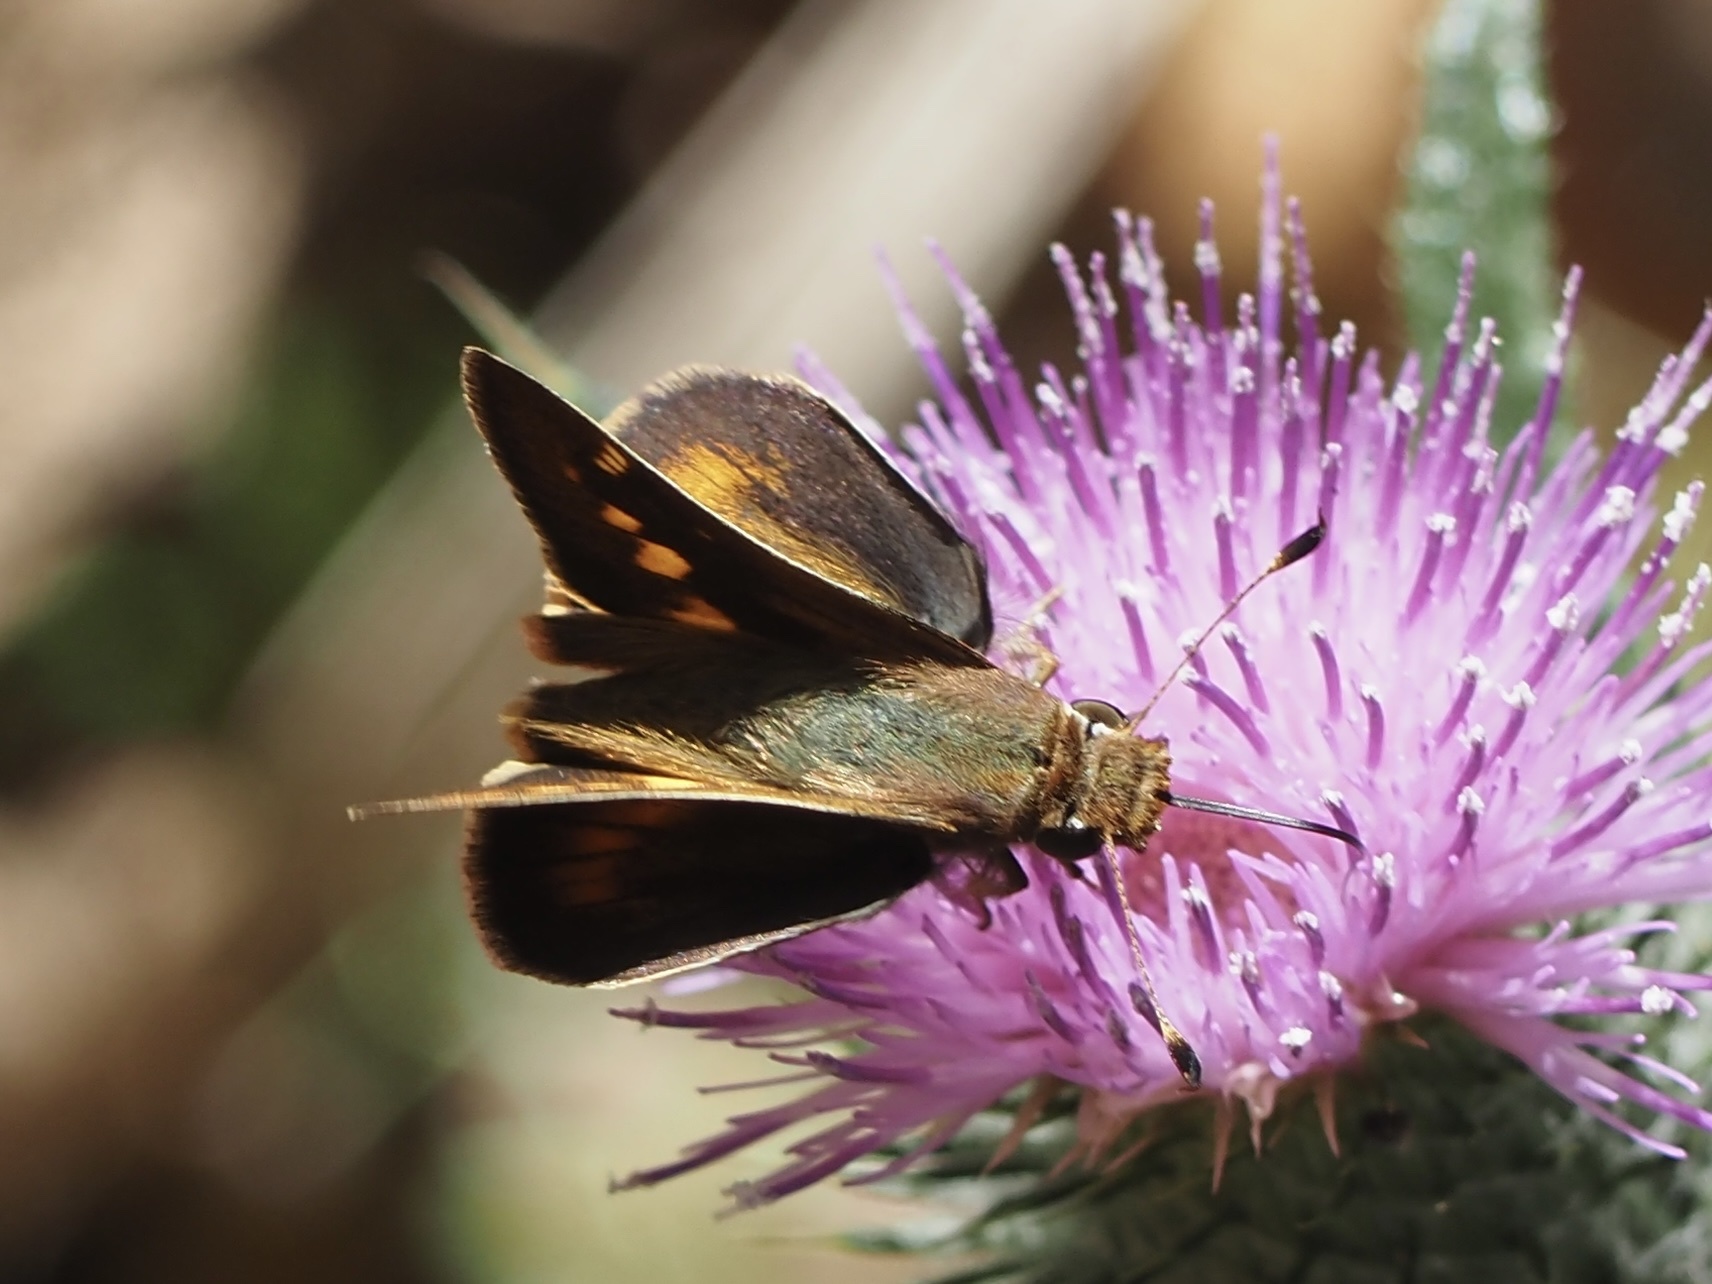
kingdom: Animalia
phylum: Arthropoda
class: Insecta
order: Lepidoptera
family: Hesperiidae
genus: Lon
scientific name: Lon melane
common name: Umber skipper
